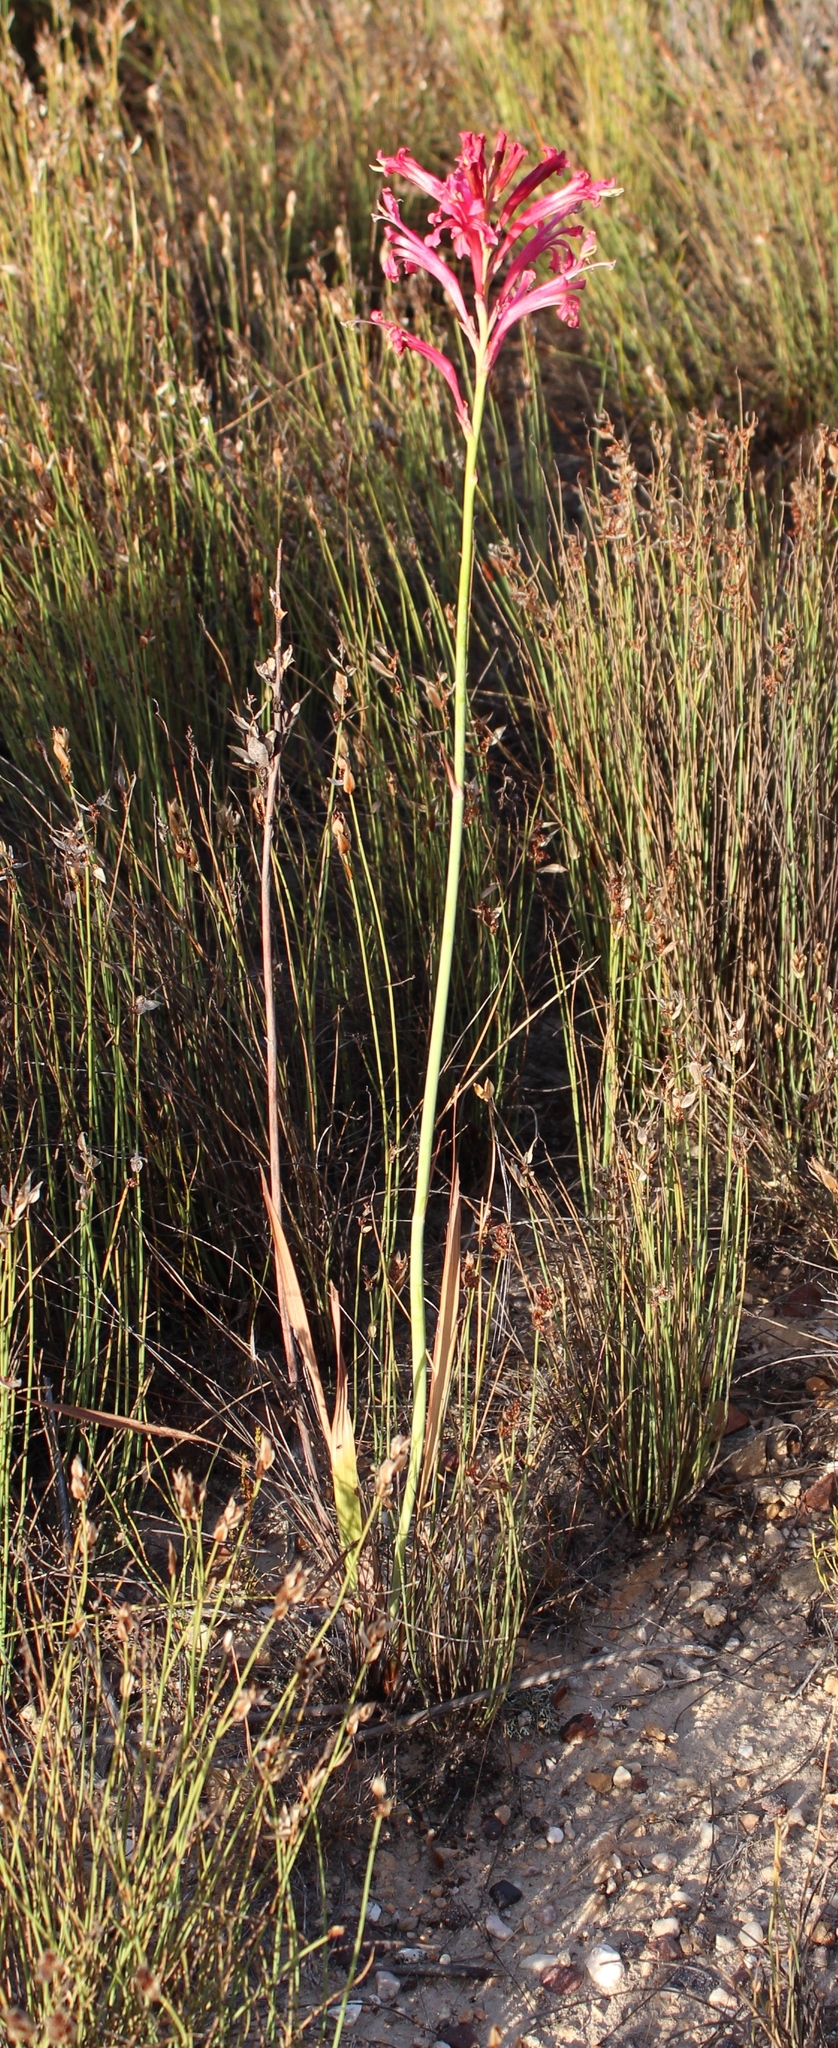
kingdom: Plantae
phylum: Tracheophyta
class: Liliopsida
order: Asparagales
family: Iridaceae
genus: Tritoniopsis
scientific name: Tritoniopsis antholyza
